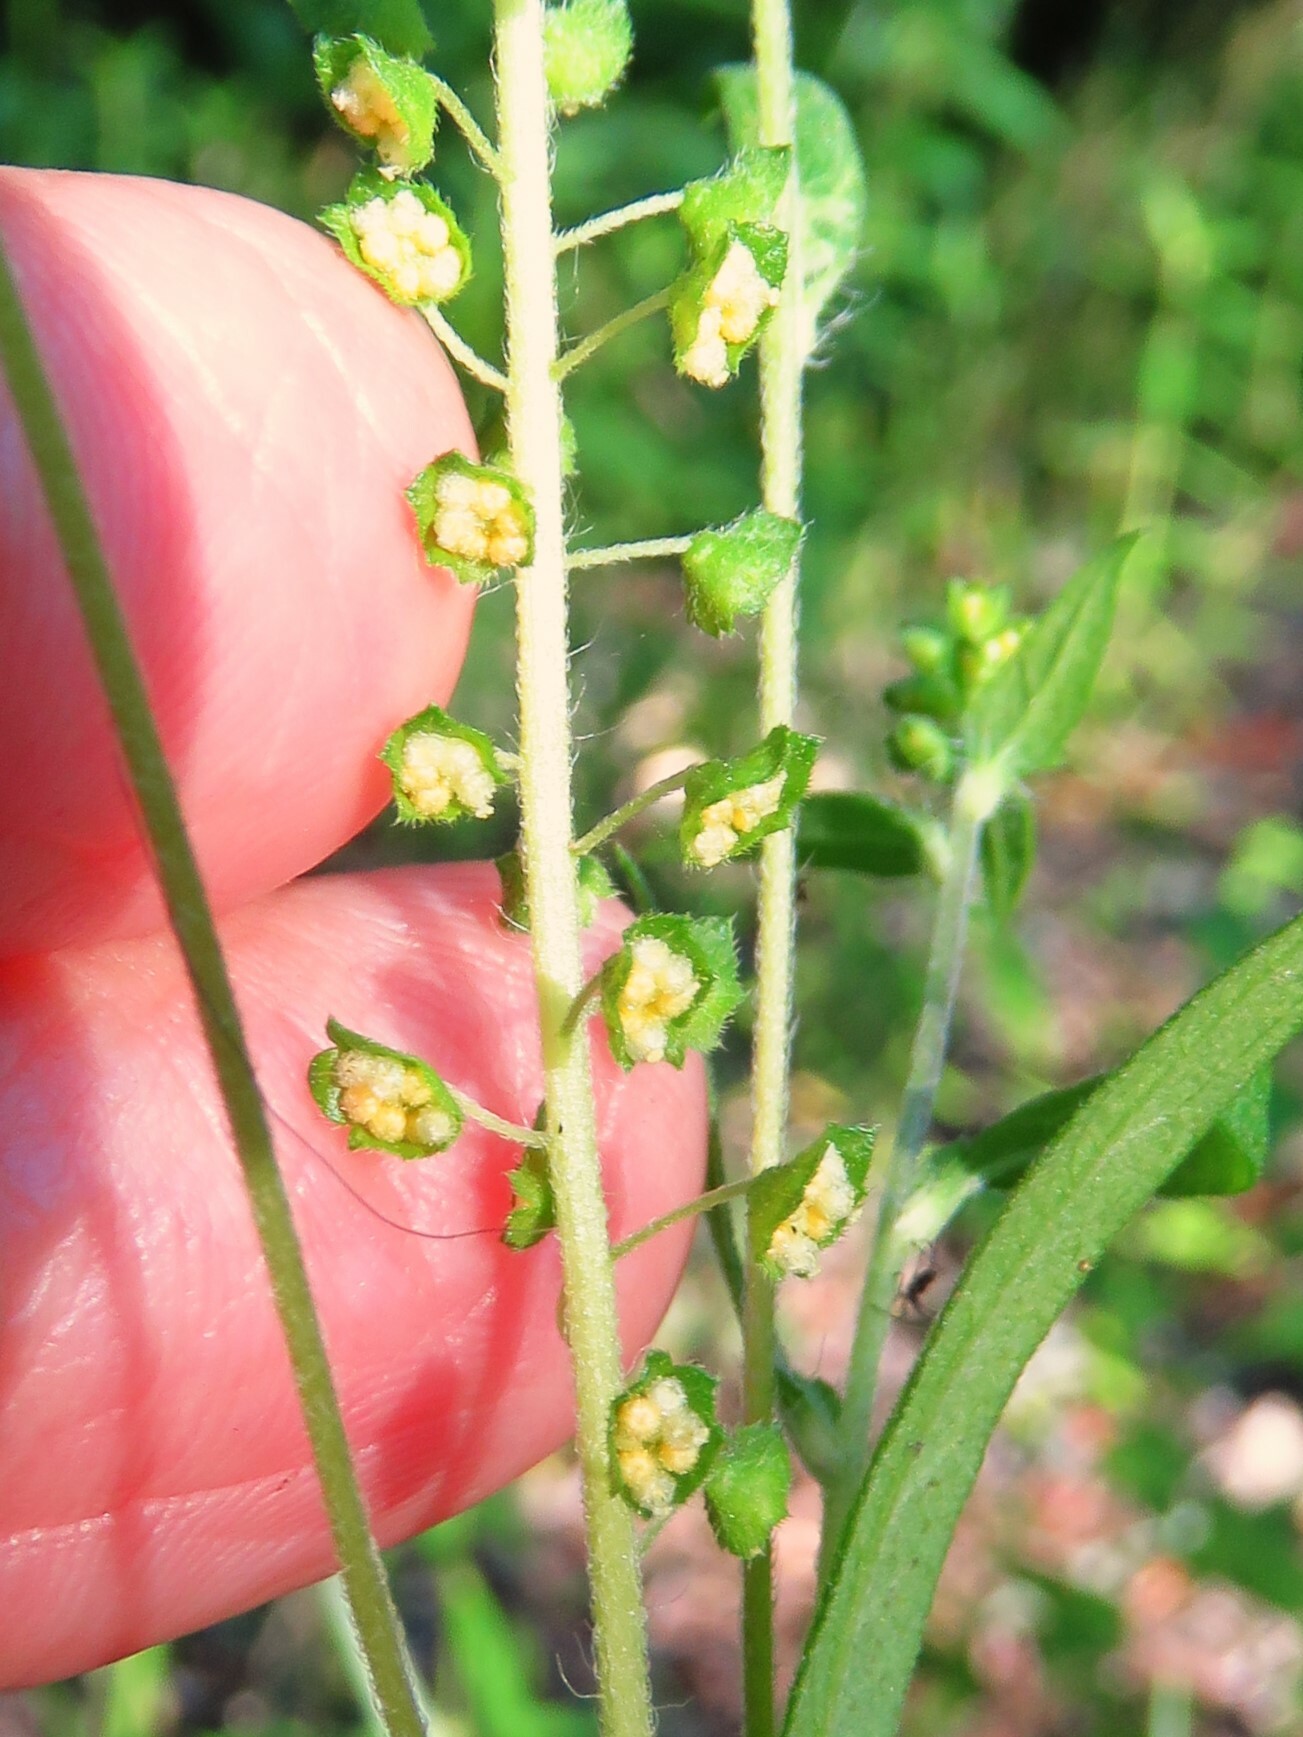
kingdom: Plantae
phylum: Tracheophyta
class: Magnoliopsida
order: Asterales
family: Asteraceae
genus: Ambrosia
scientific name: Ambrosia artemisiifolia
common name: Annual ragweed
